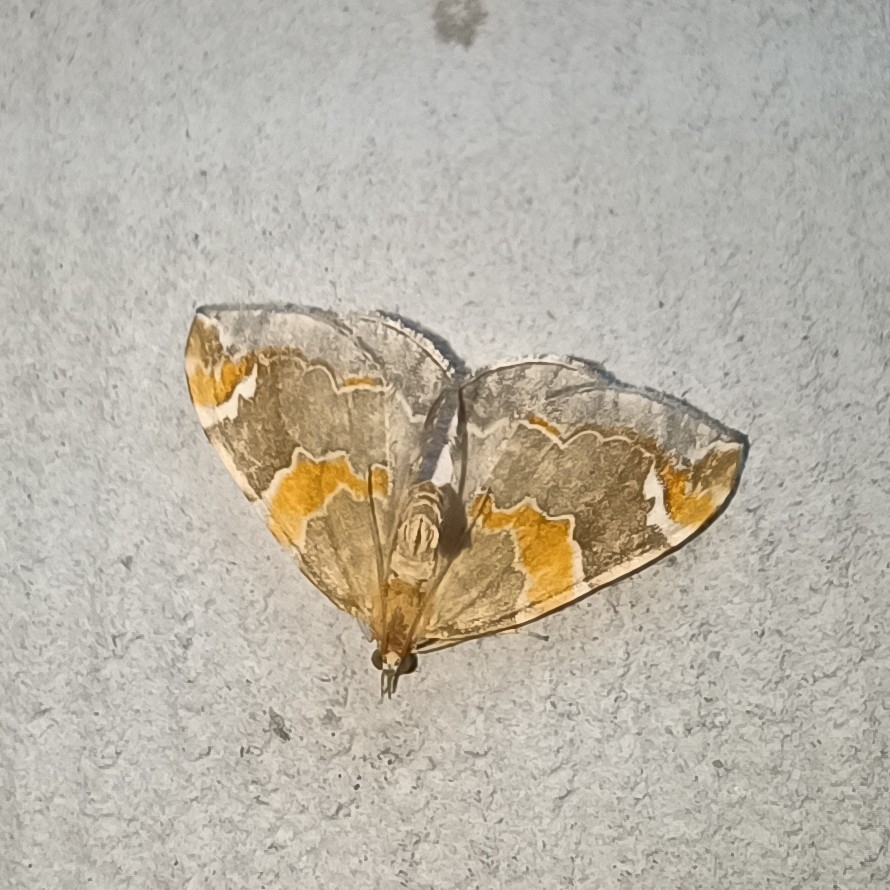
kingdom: Animalia
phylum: Arthropoda
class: Insecta
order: Lepidoptera
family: Geometridae
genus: Eulithis
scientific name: Eulithis pyropata
